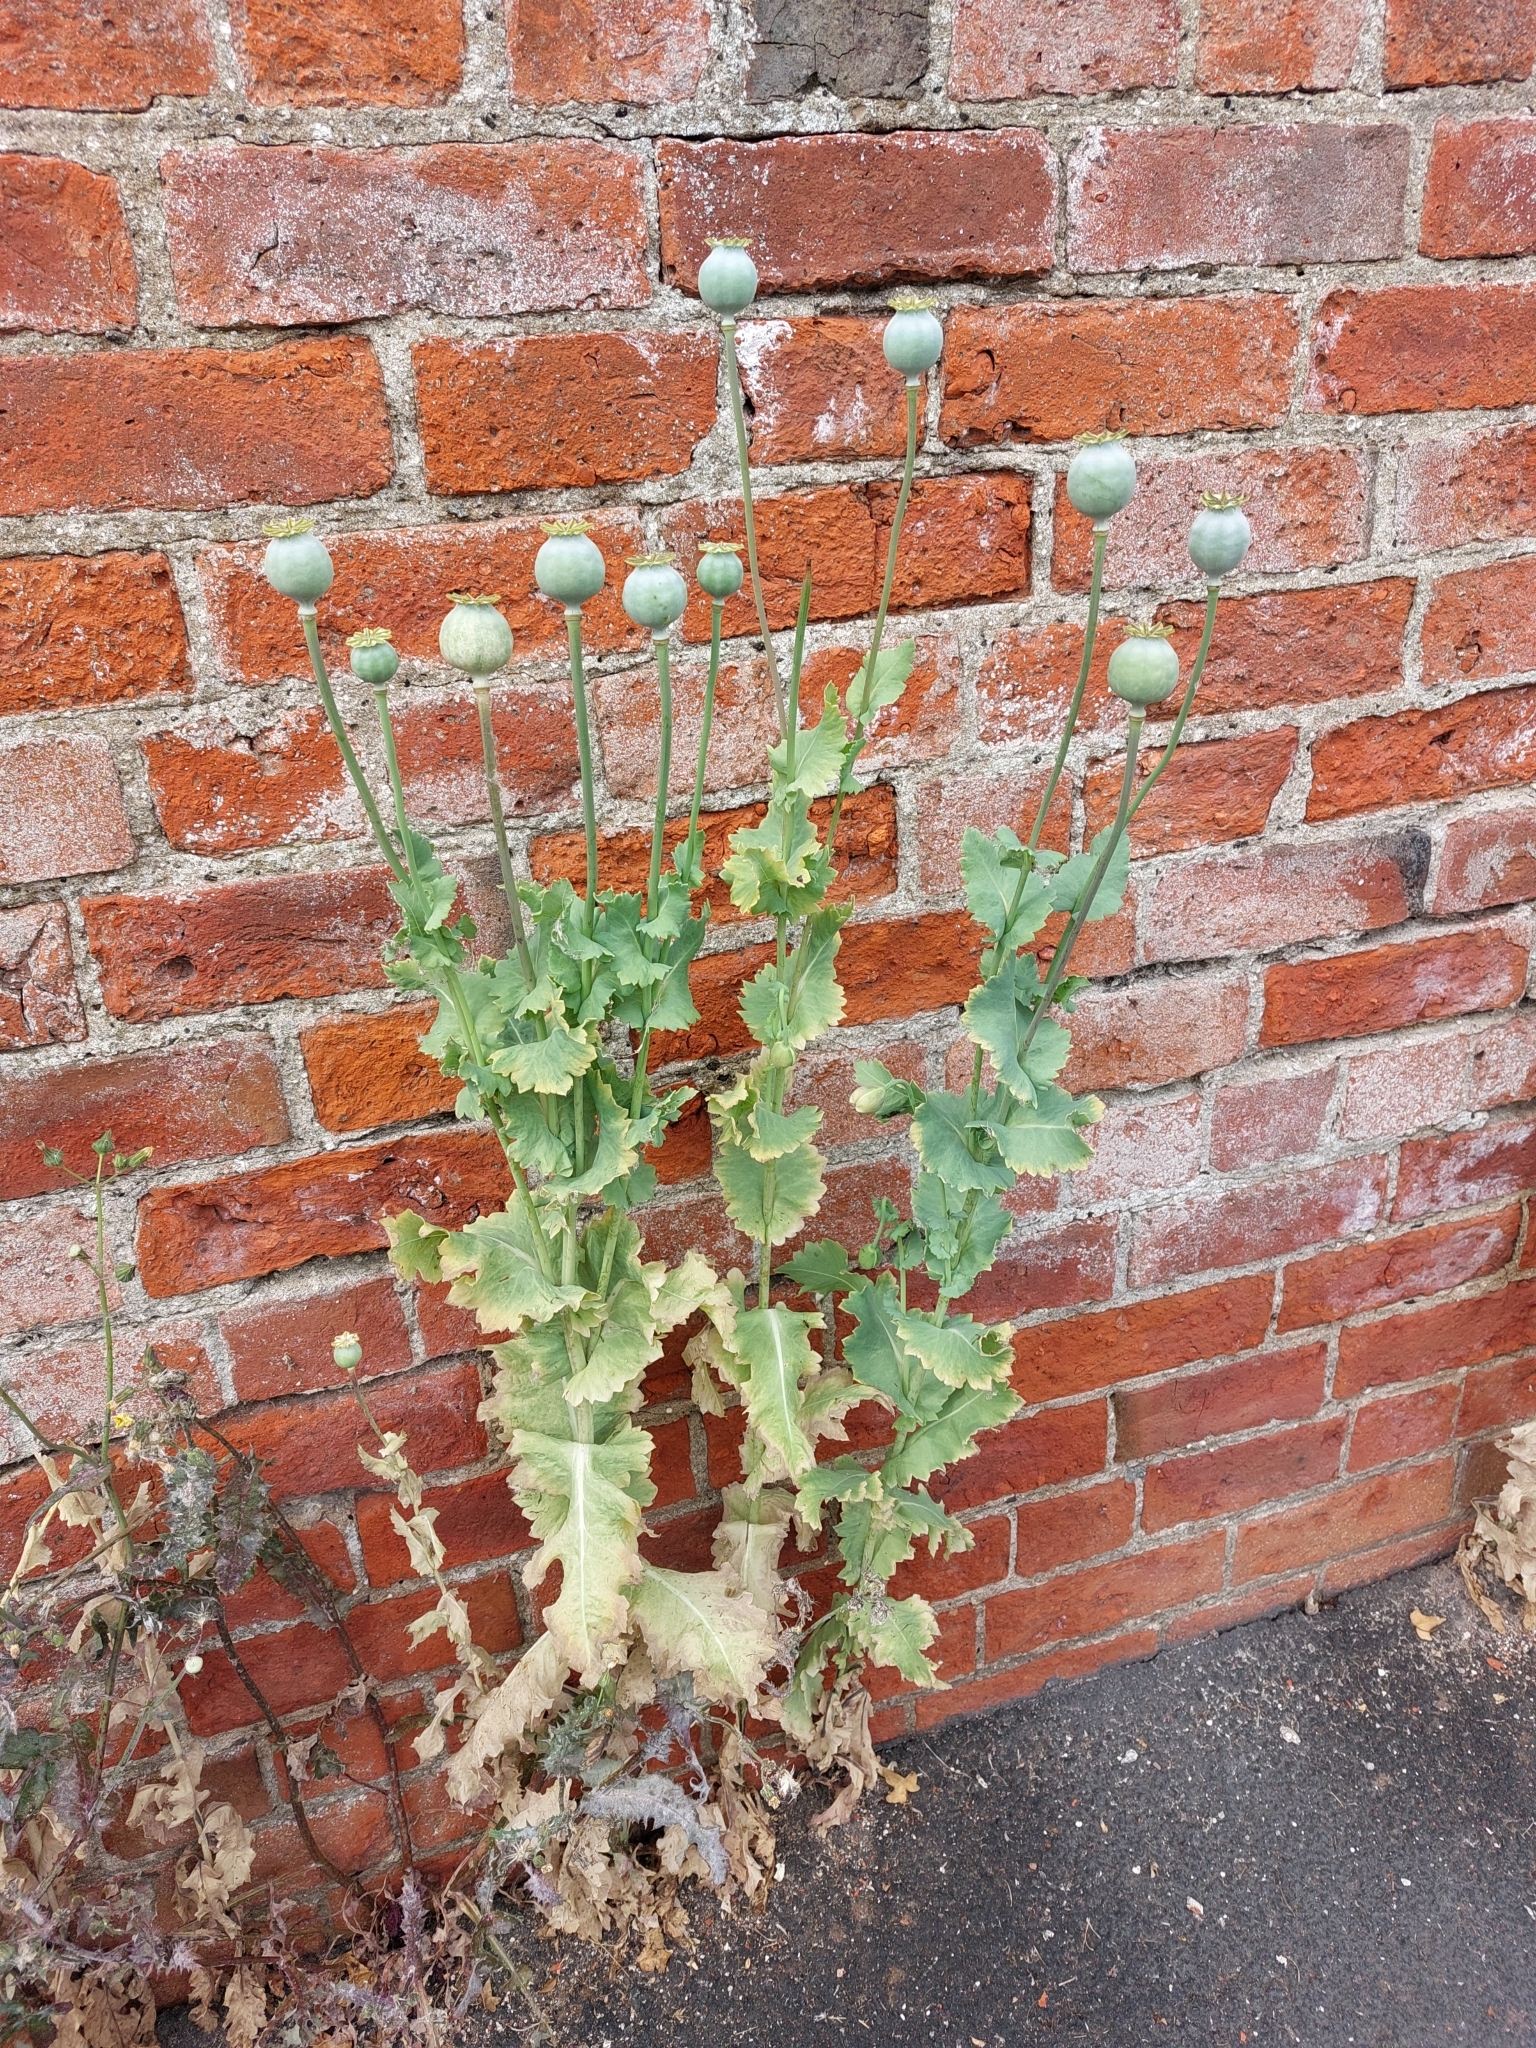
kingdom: Plantae
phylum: Tracheophyta
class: Magnoliopsida
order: Ranunculales
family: Papaveraceae
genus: Papaver
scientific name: Papaver somniferum
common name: Opium poppy
